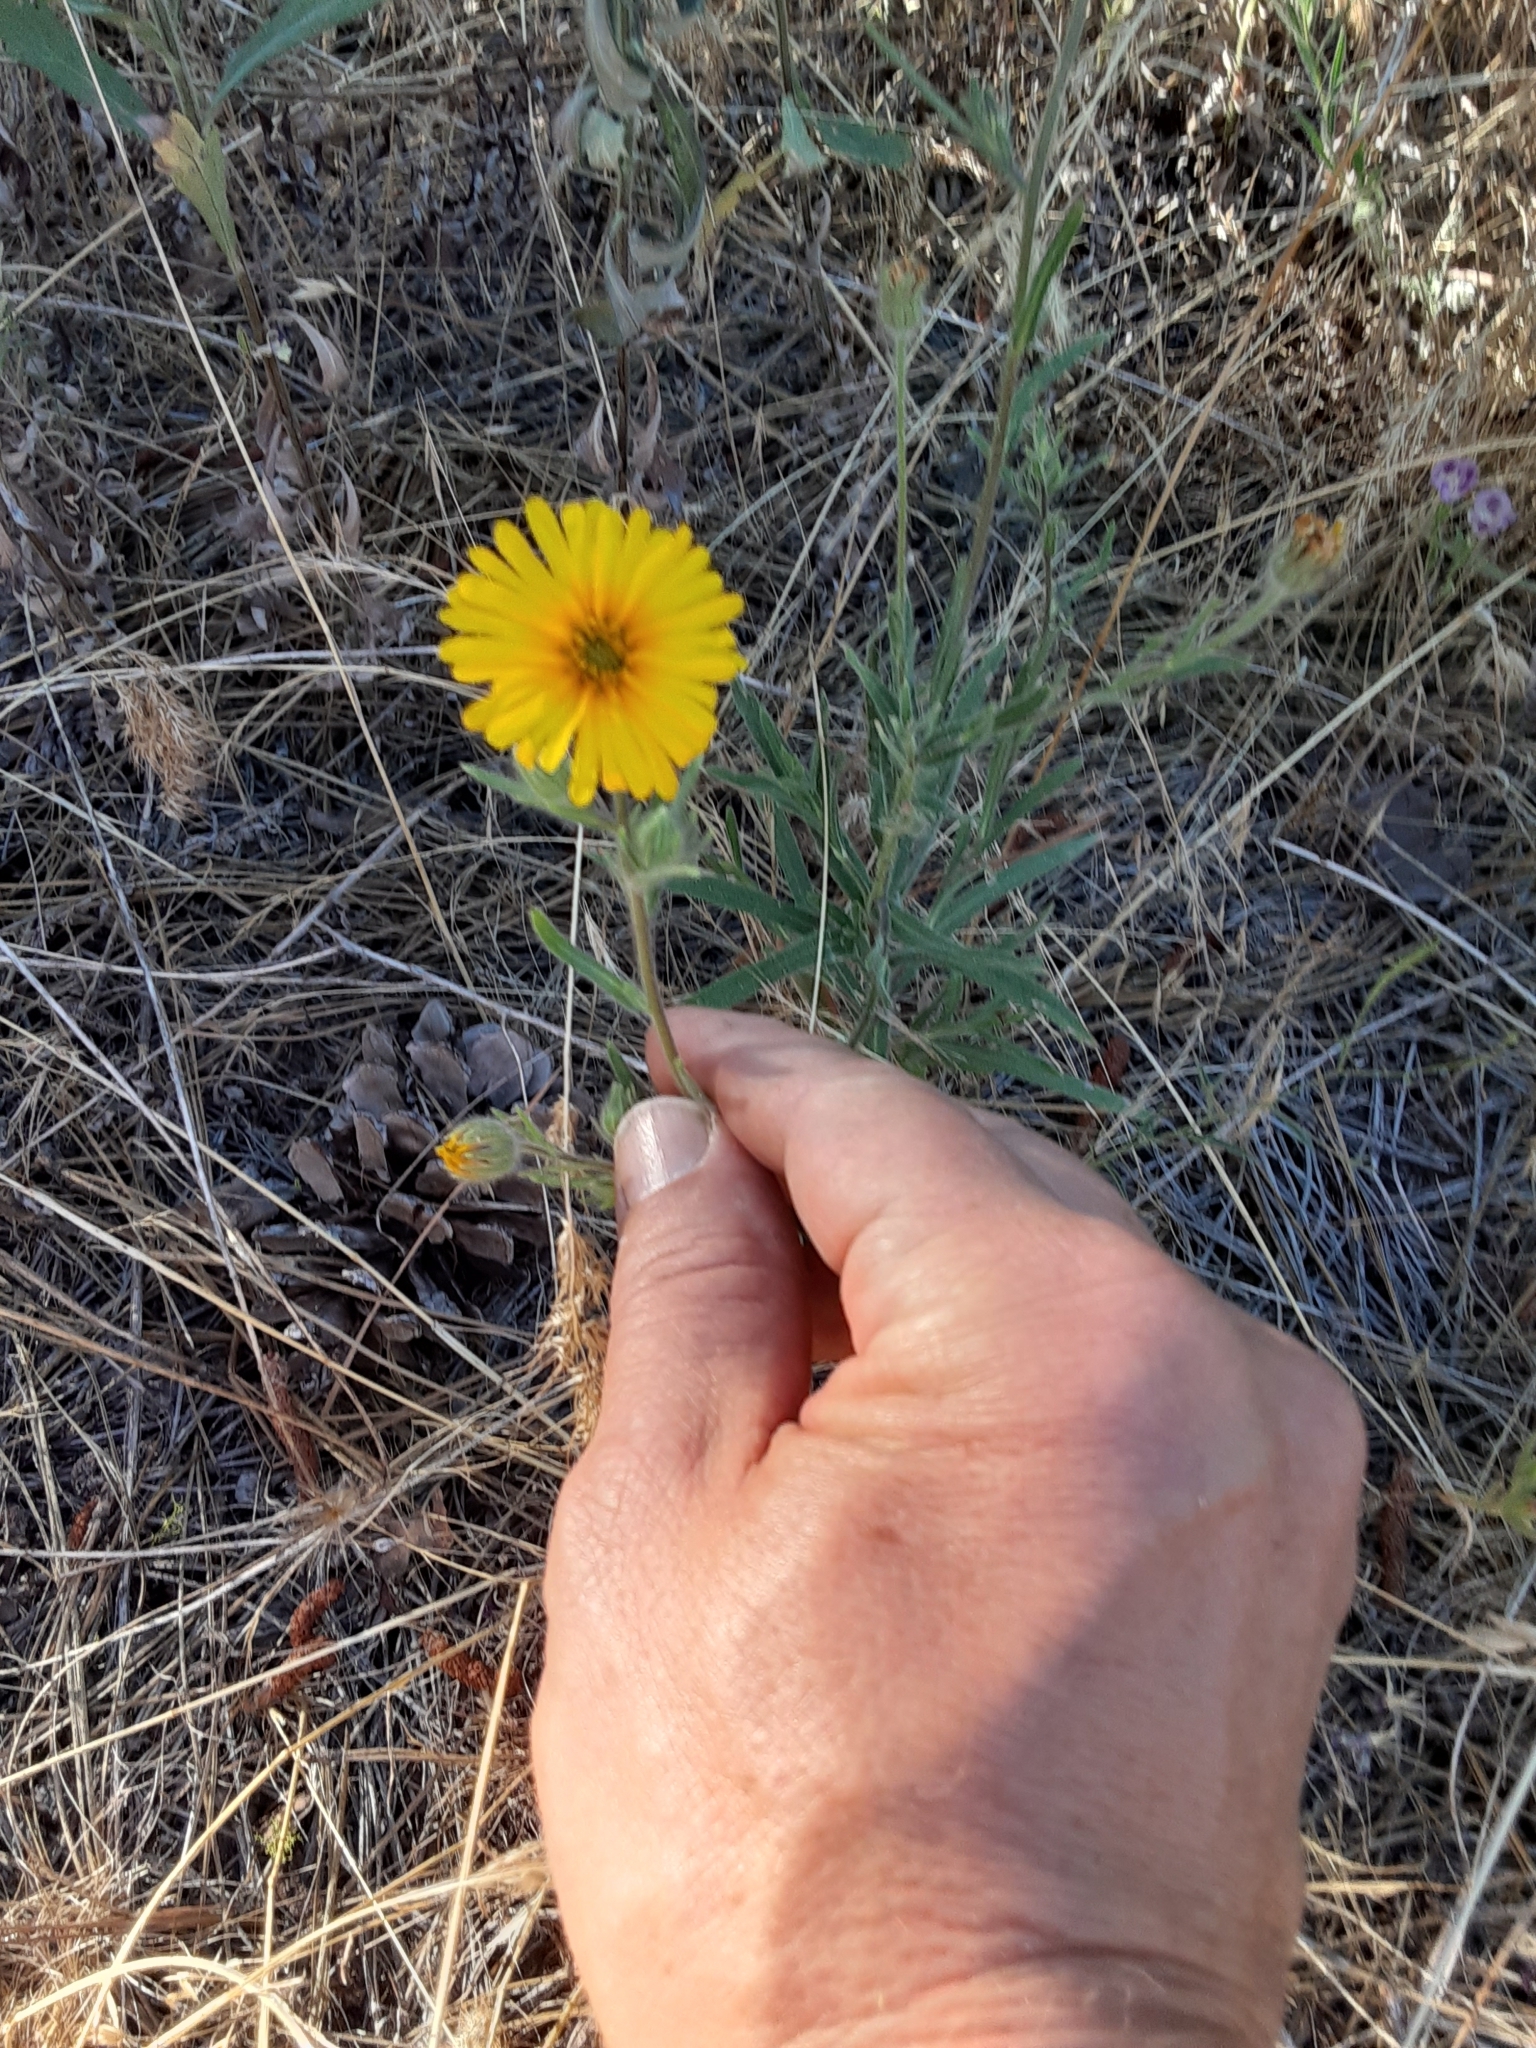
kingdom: Plantae
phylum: Tracheophyta
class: Magnoliopsida
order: Asterales
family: Asteraceae
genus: Madia
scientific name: Madia elegans
